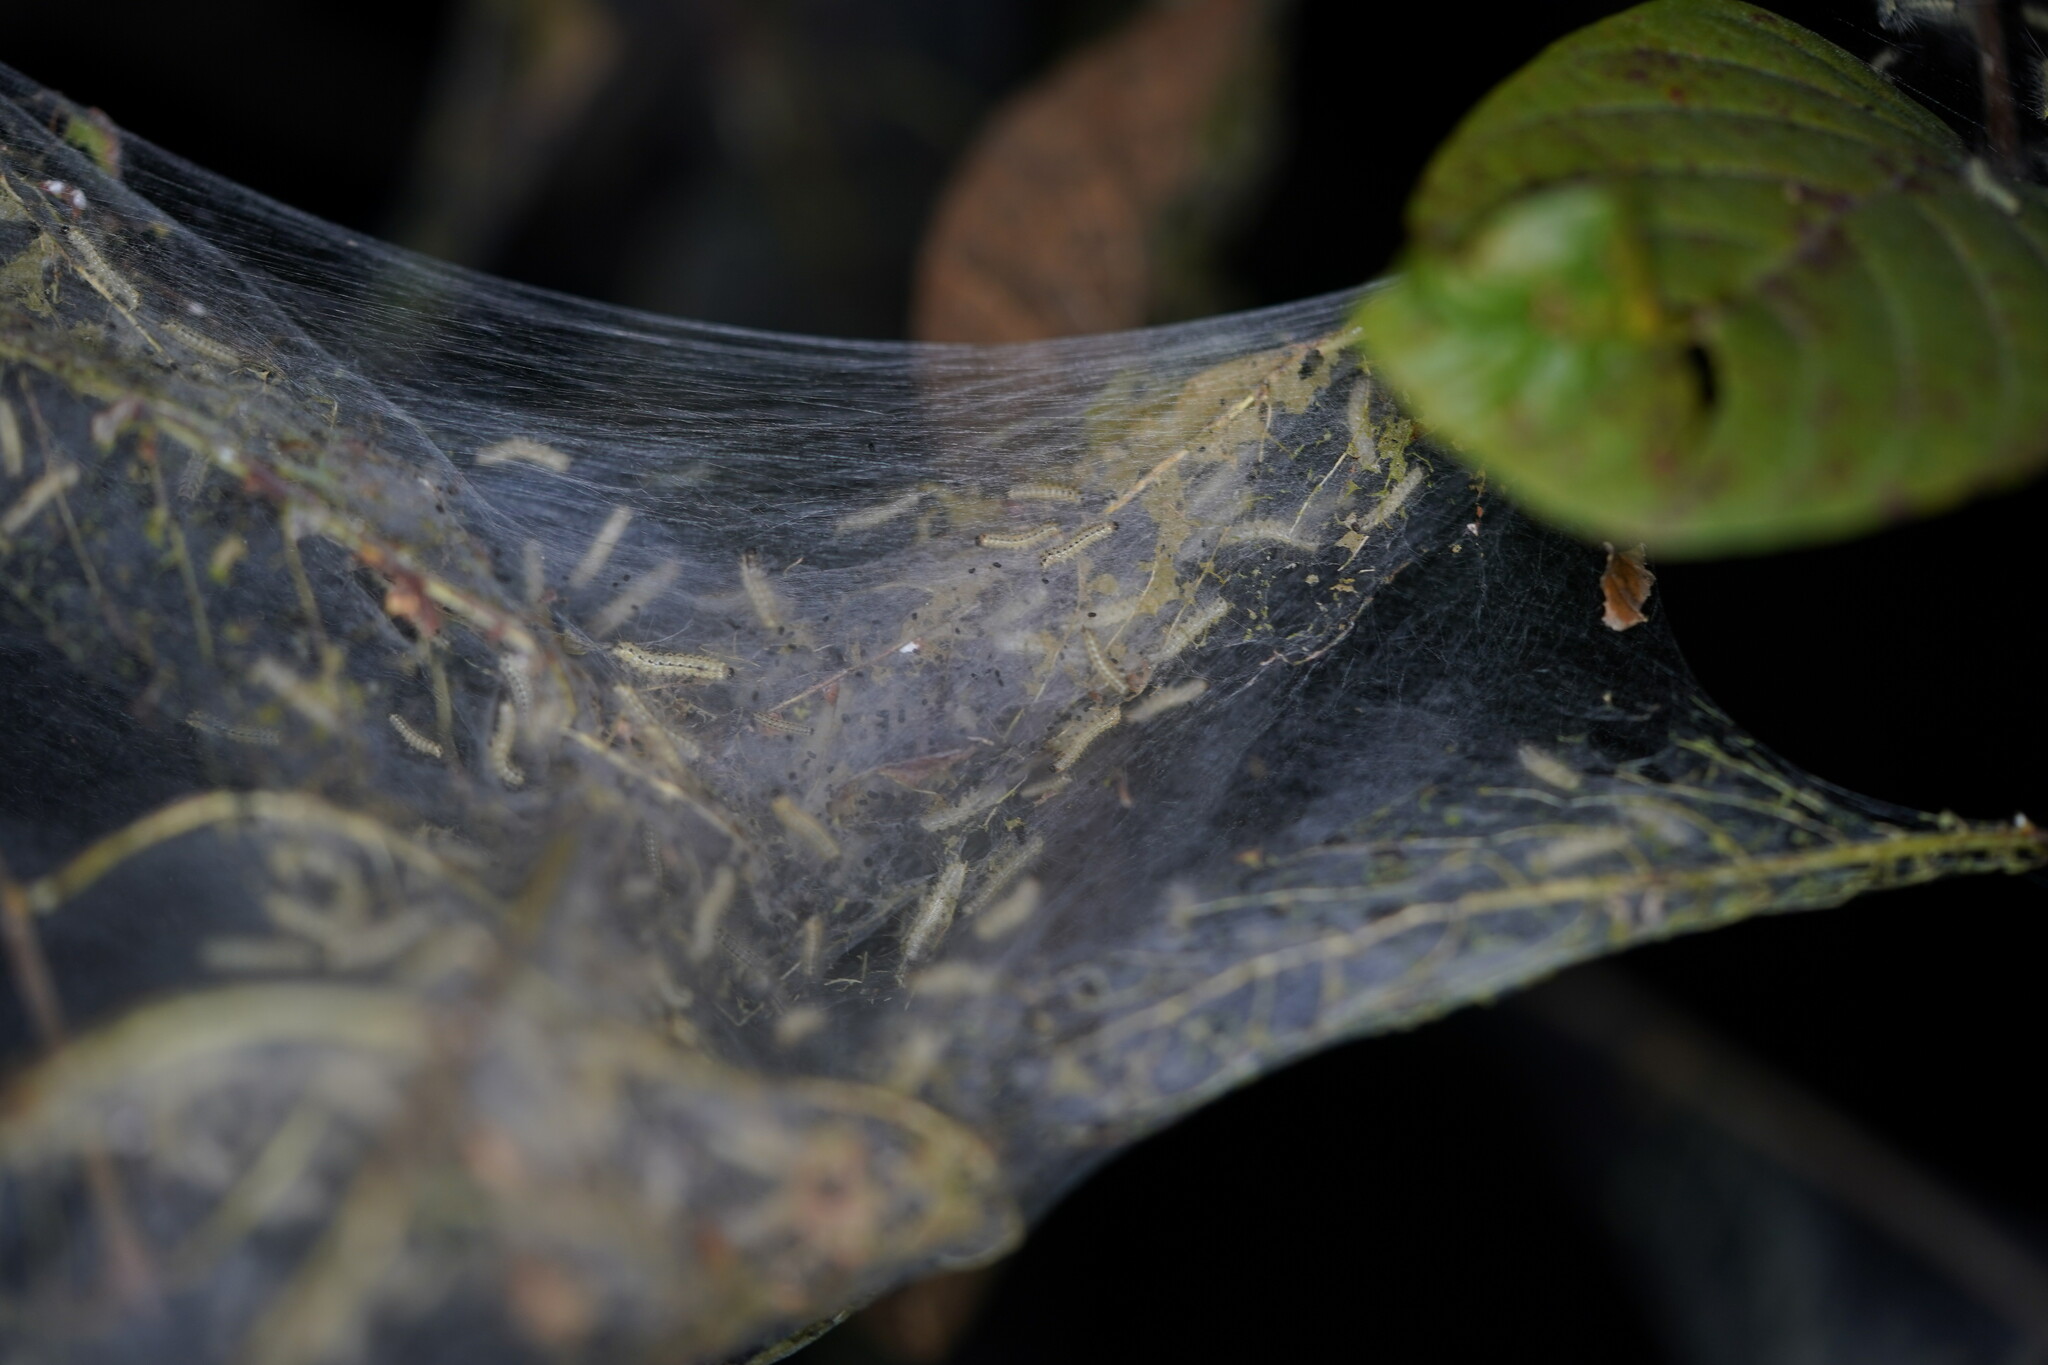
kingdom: Animalia
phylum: Arthropoda
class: Insecta
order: Lepidoptera
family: Erebidae
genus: Hyphantria
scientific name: Hyphantria cunea
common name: American white moth
